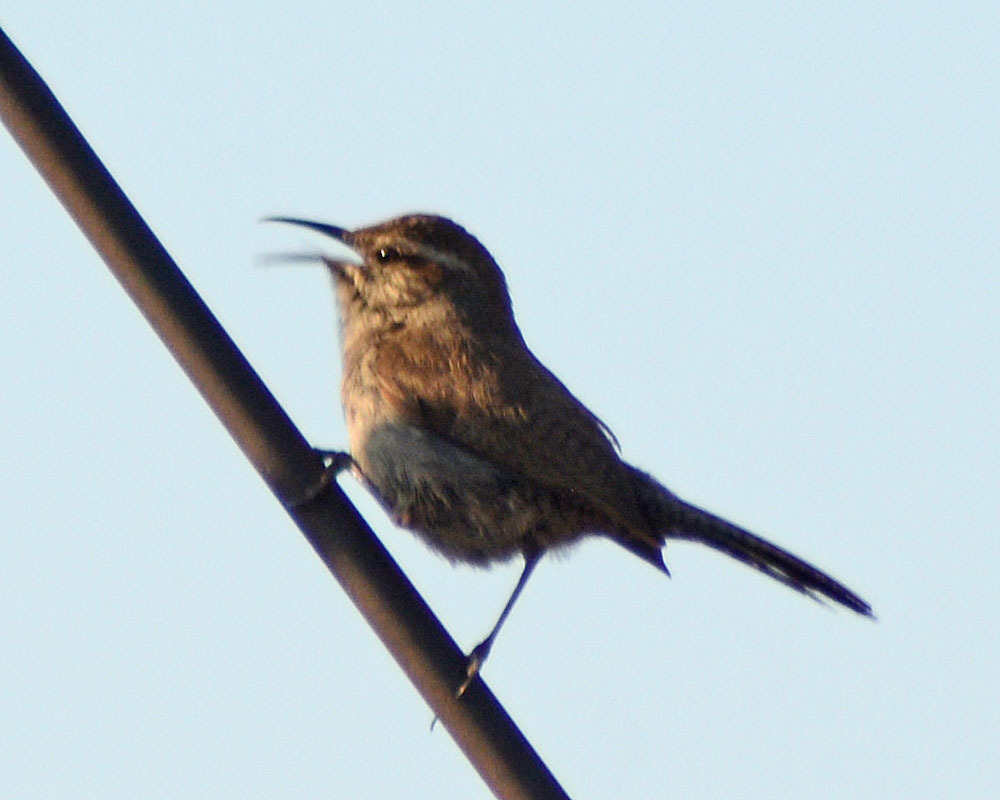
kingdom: Animalia
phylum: Chordata
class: Aves
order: Passeriformes
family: Troglodytidae
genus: Thryomanes
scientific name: Thryomanes bewickii
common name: Bewick's wren
